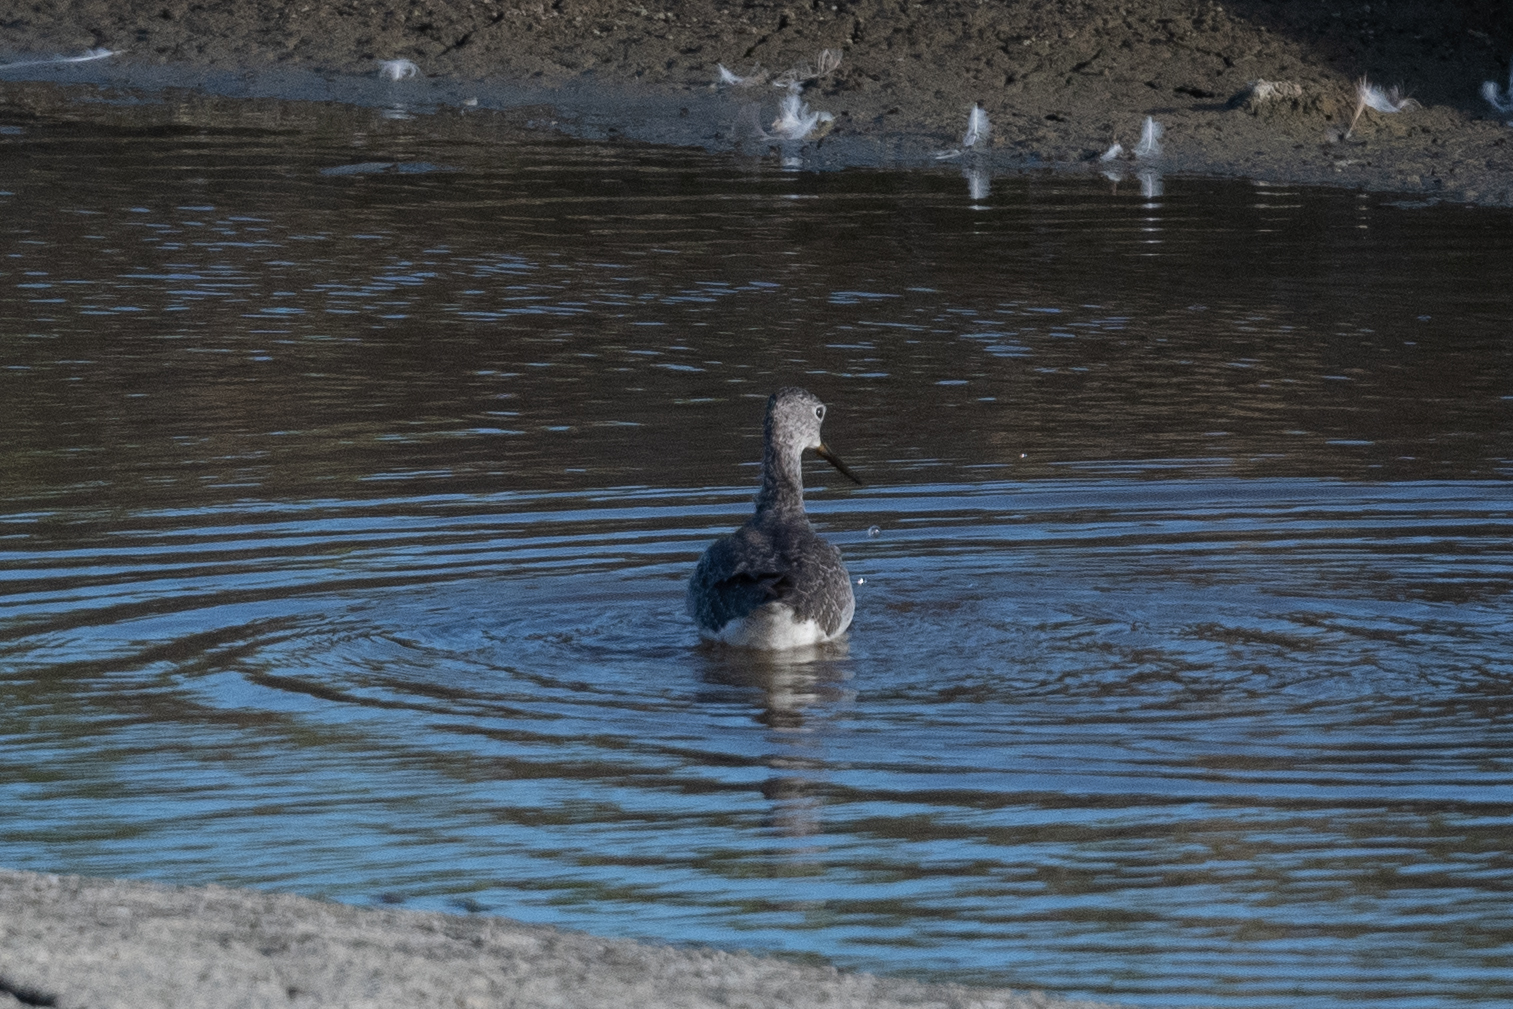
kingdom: Animalia
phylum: Chordata
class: Aves
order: Charadriiformes
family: Scolopacidae
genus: Tringa
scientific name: Tringa melanoleuca
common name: Greater yellowlegs
